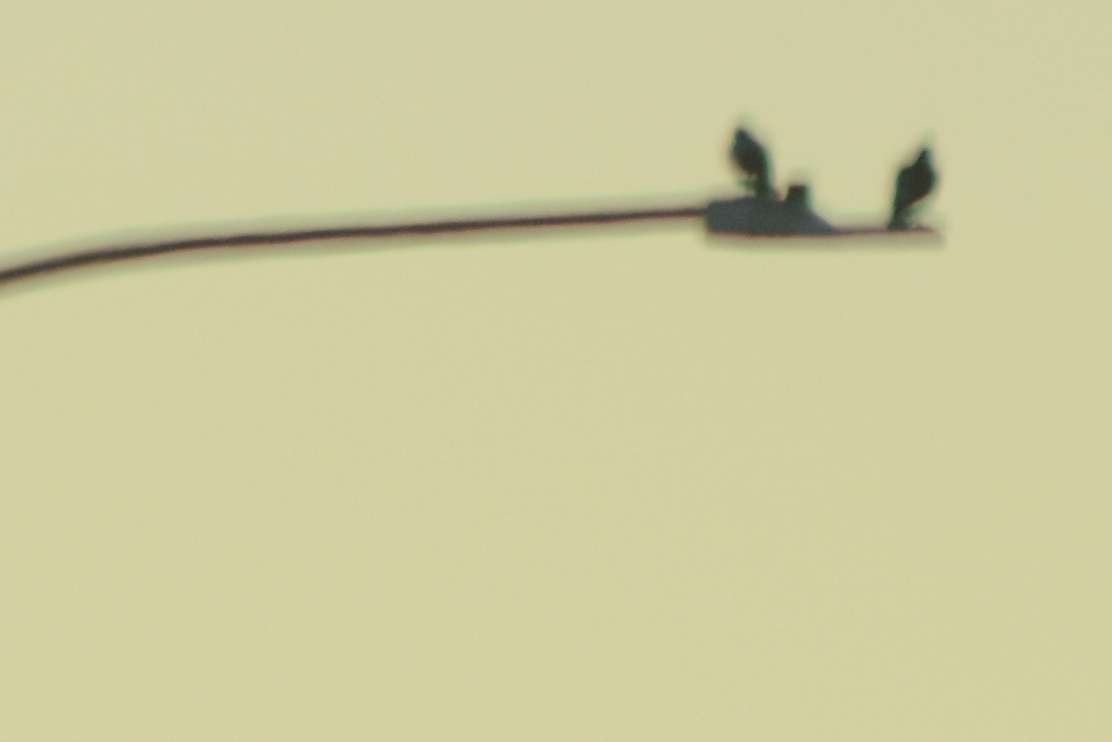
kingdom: Animalia
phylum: Chordata
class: Aves
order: Columbiformes
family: Columbidae
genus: Columba
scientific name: Columba livia
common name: Rock pigeon
